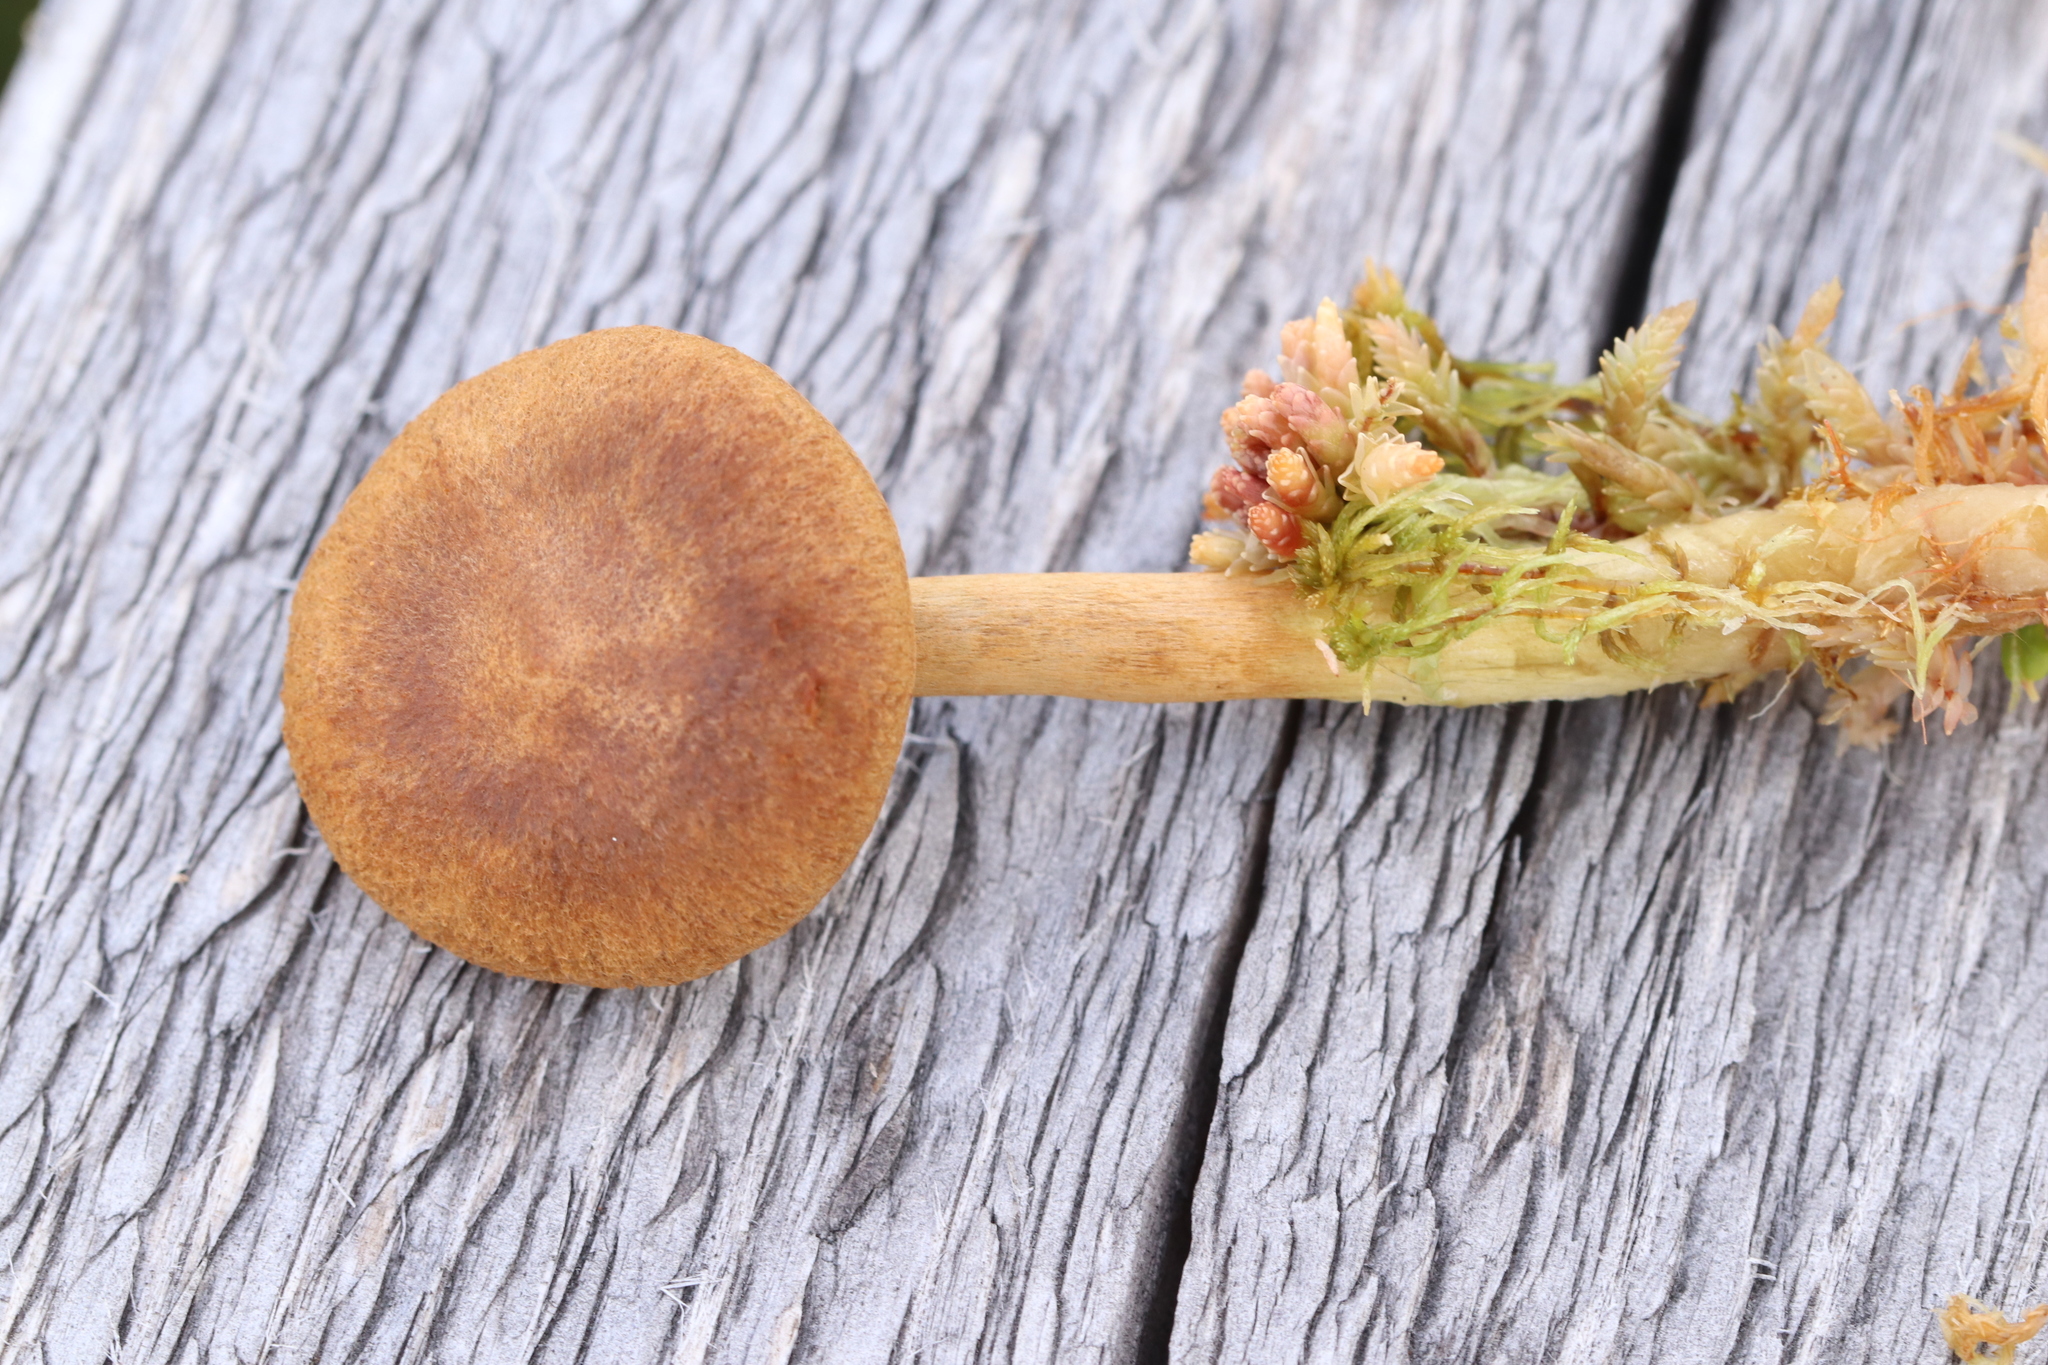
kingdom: Fungi
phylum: Basidiomycota
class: Agaricomycetes
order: Agaricales
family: Cortinariaceae
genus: Cortinarius
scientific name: Cortinarius chrysolitus
